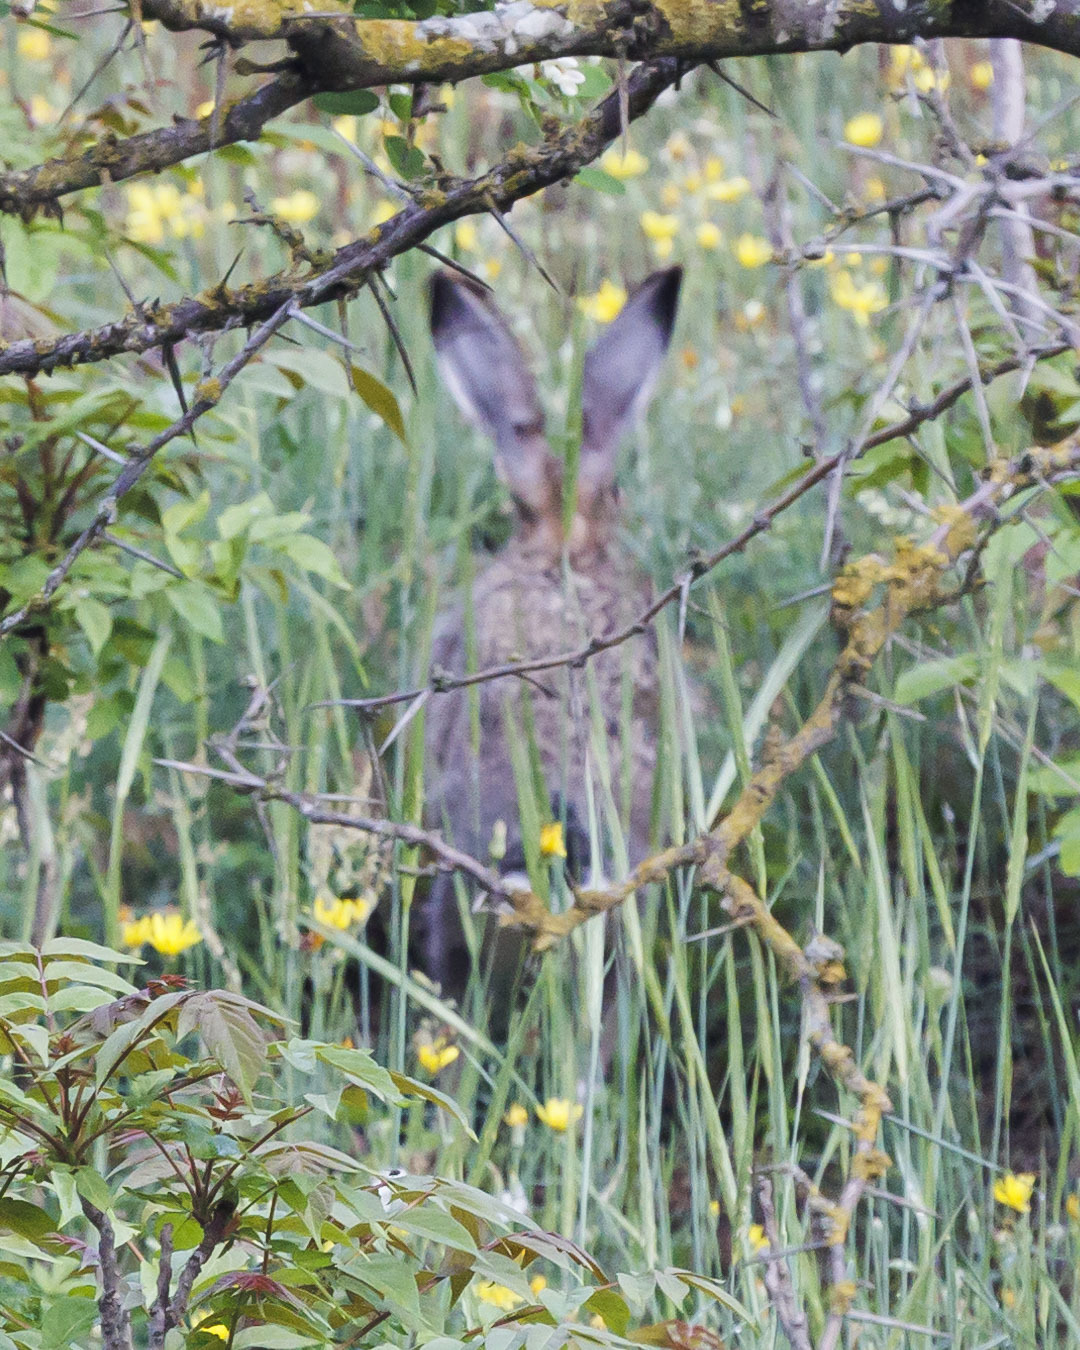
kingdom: Animalia
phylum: Chordata
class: Mammalia
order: Lagomorpha
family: Leporidae
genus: Lepus
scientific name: Lepus europaeus
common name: European hare
